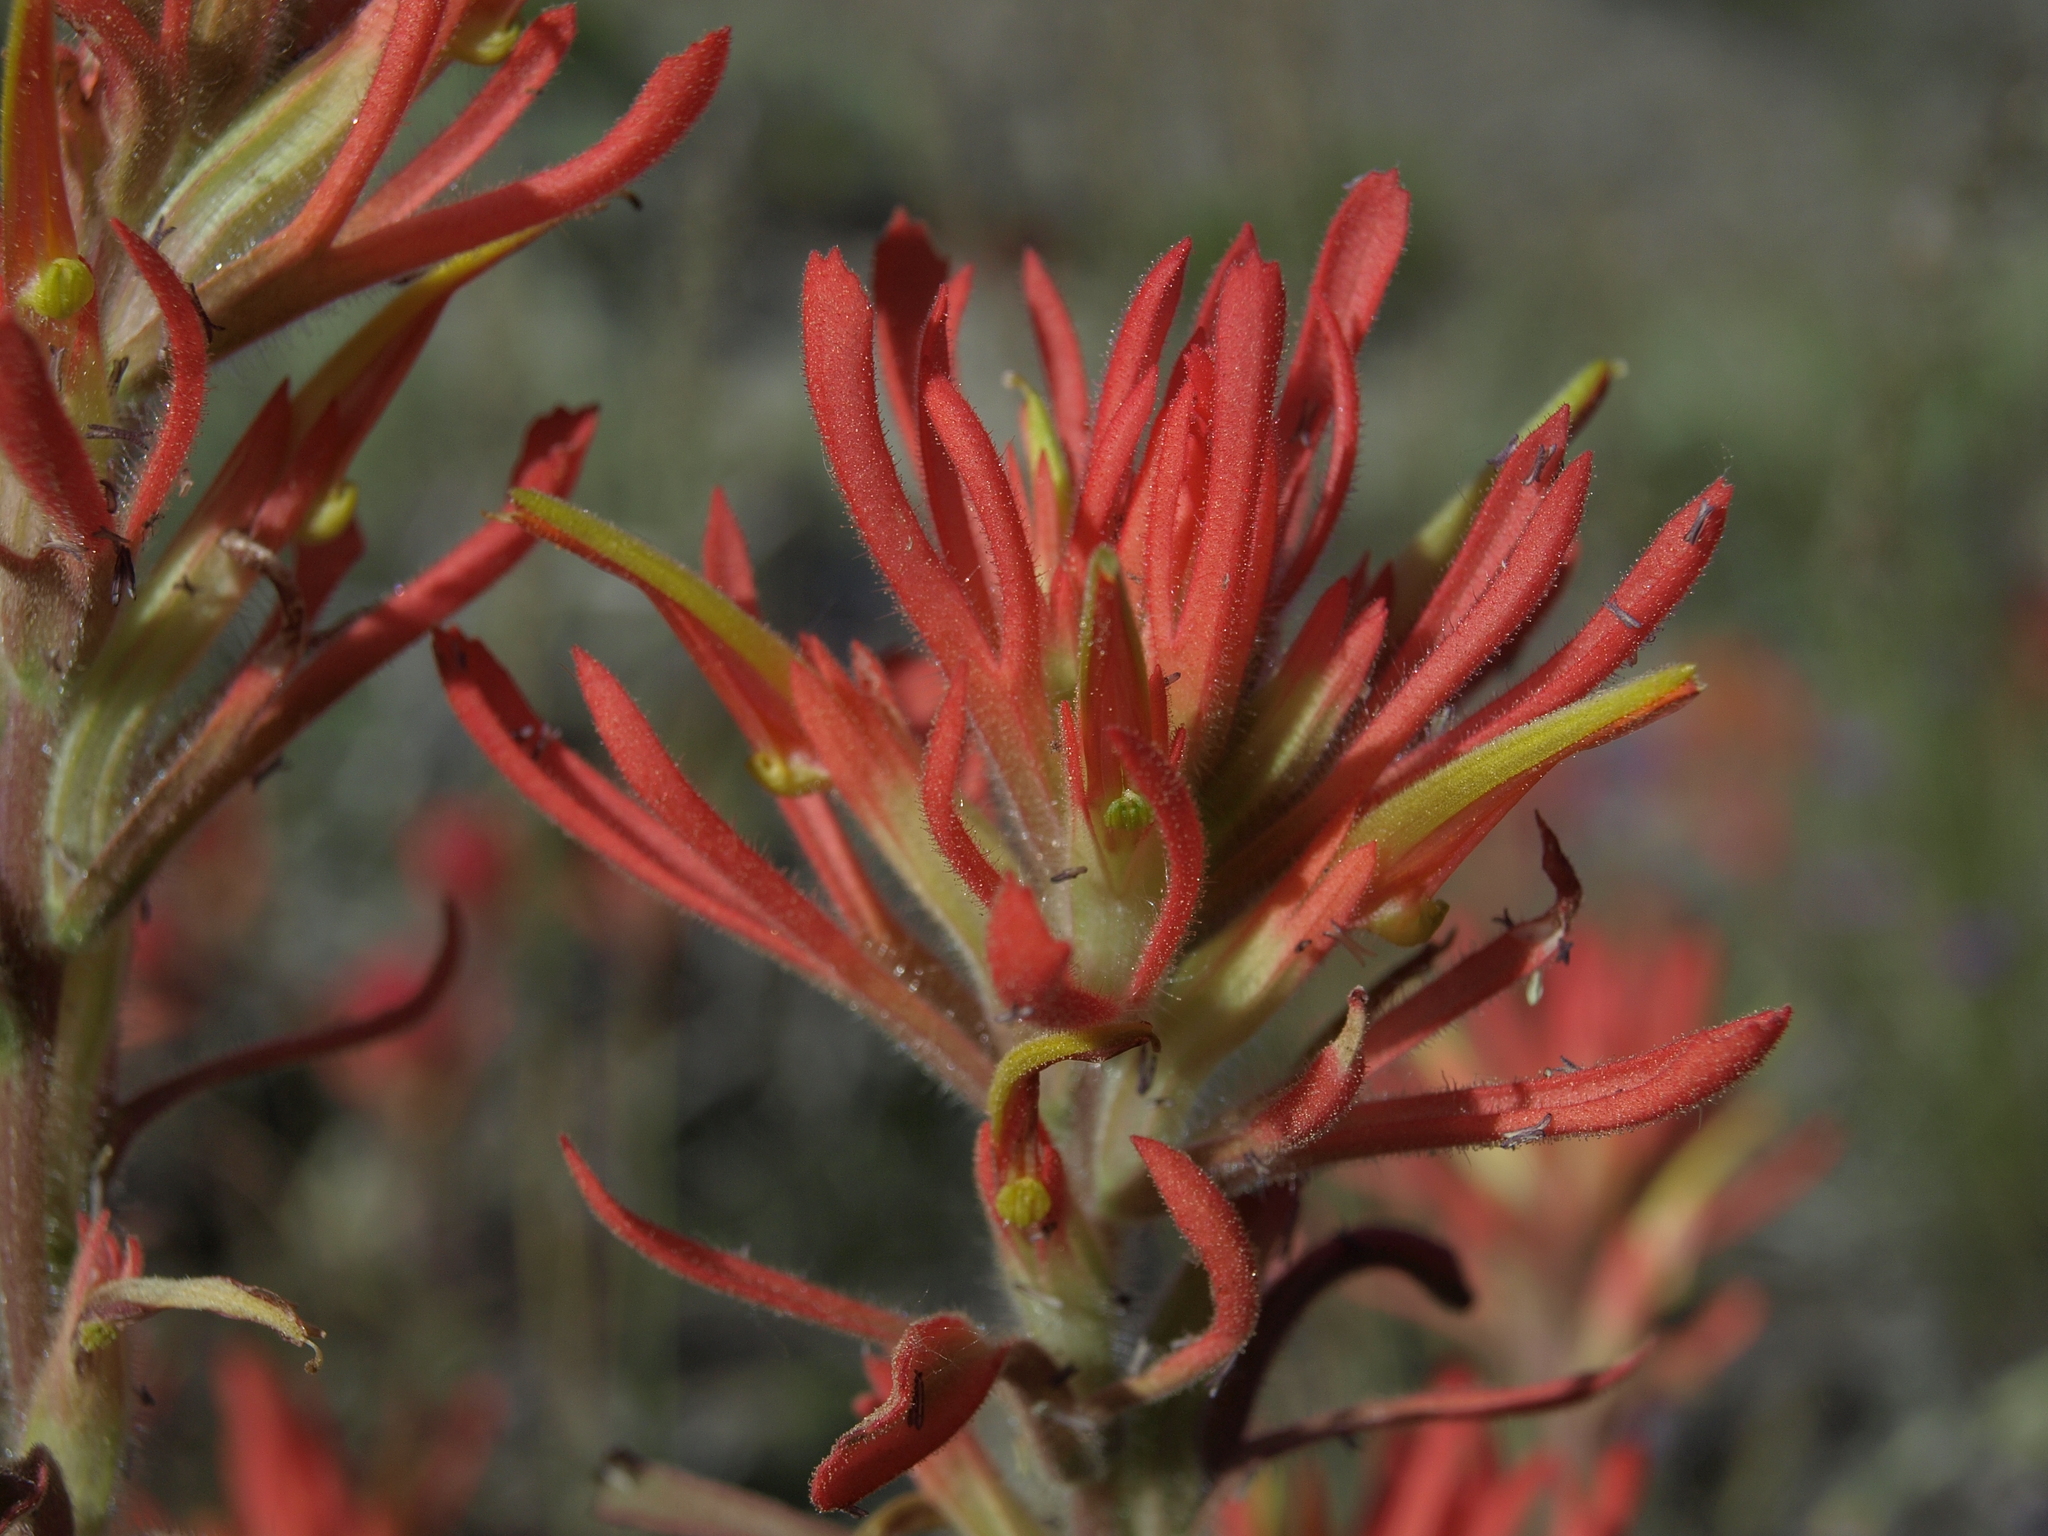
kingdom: Plantae
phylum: Tracheophyta
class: Magnoliopsida
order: Lamiales
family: Orobanchaceae
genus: Castilleja
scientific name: Castilleja applegatei
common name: Wavy-leaf paintbrush
